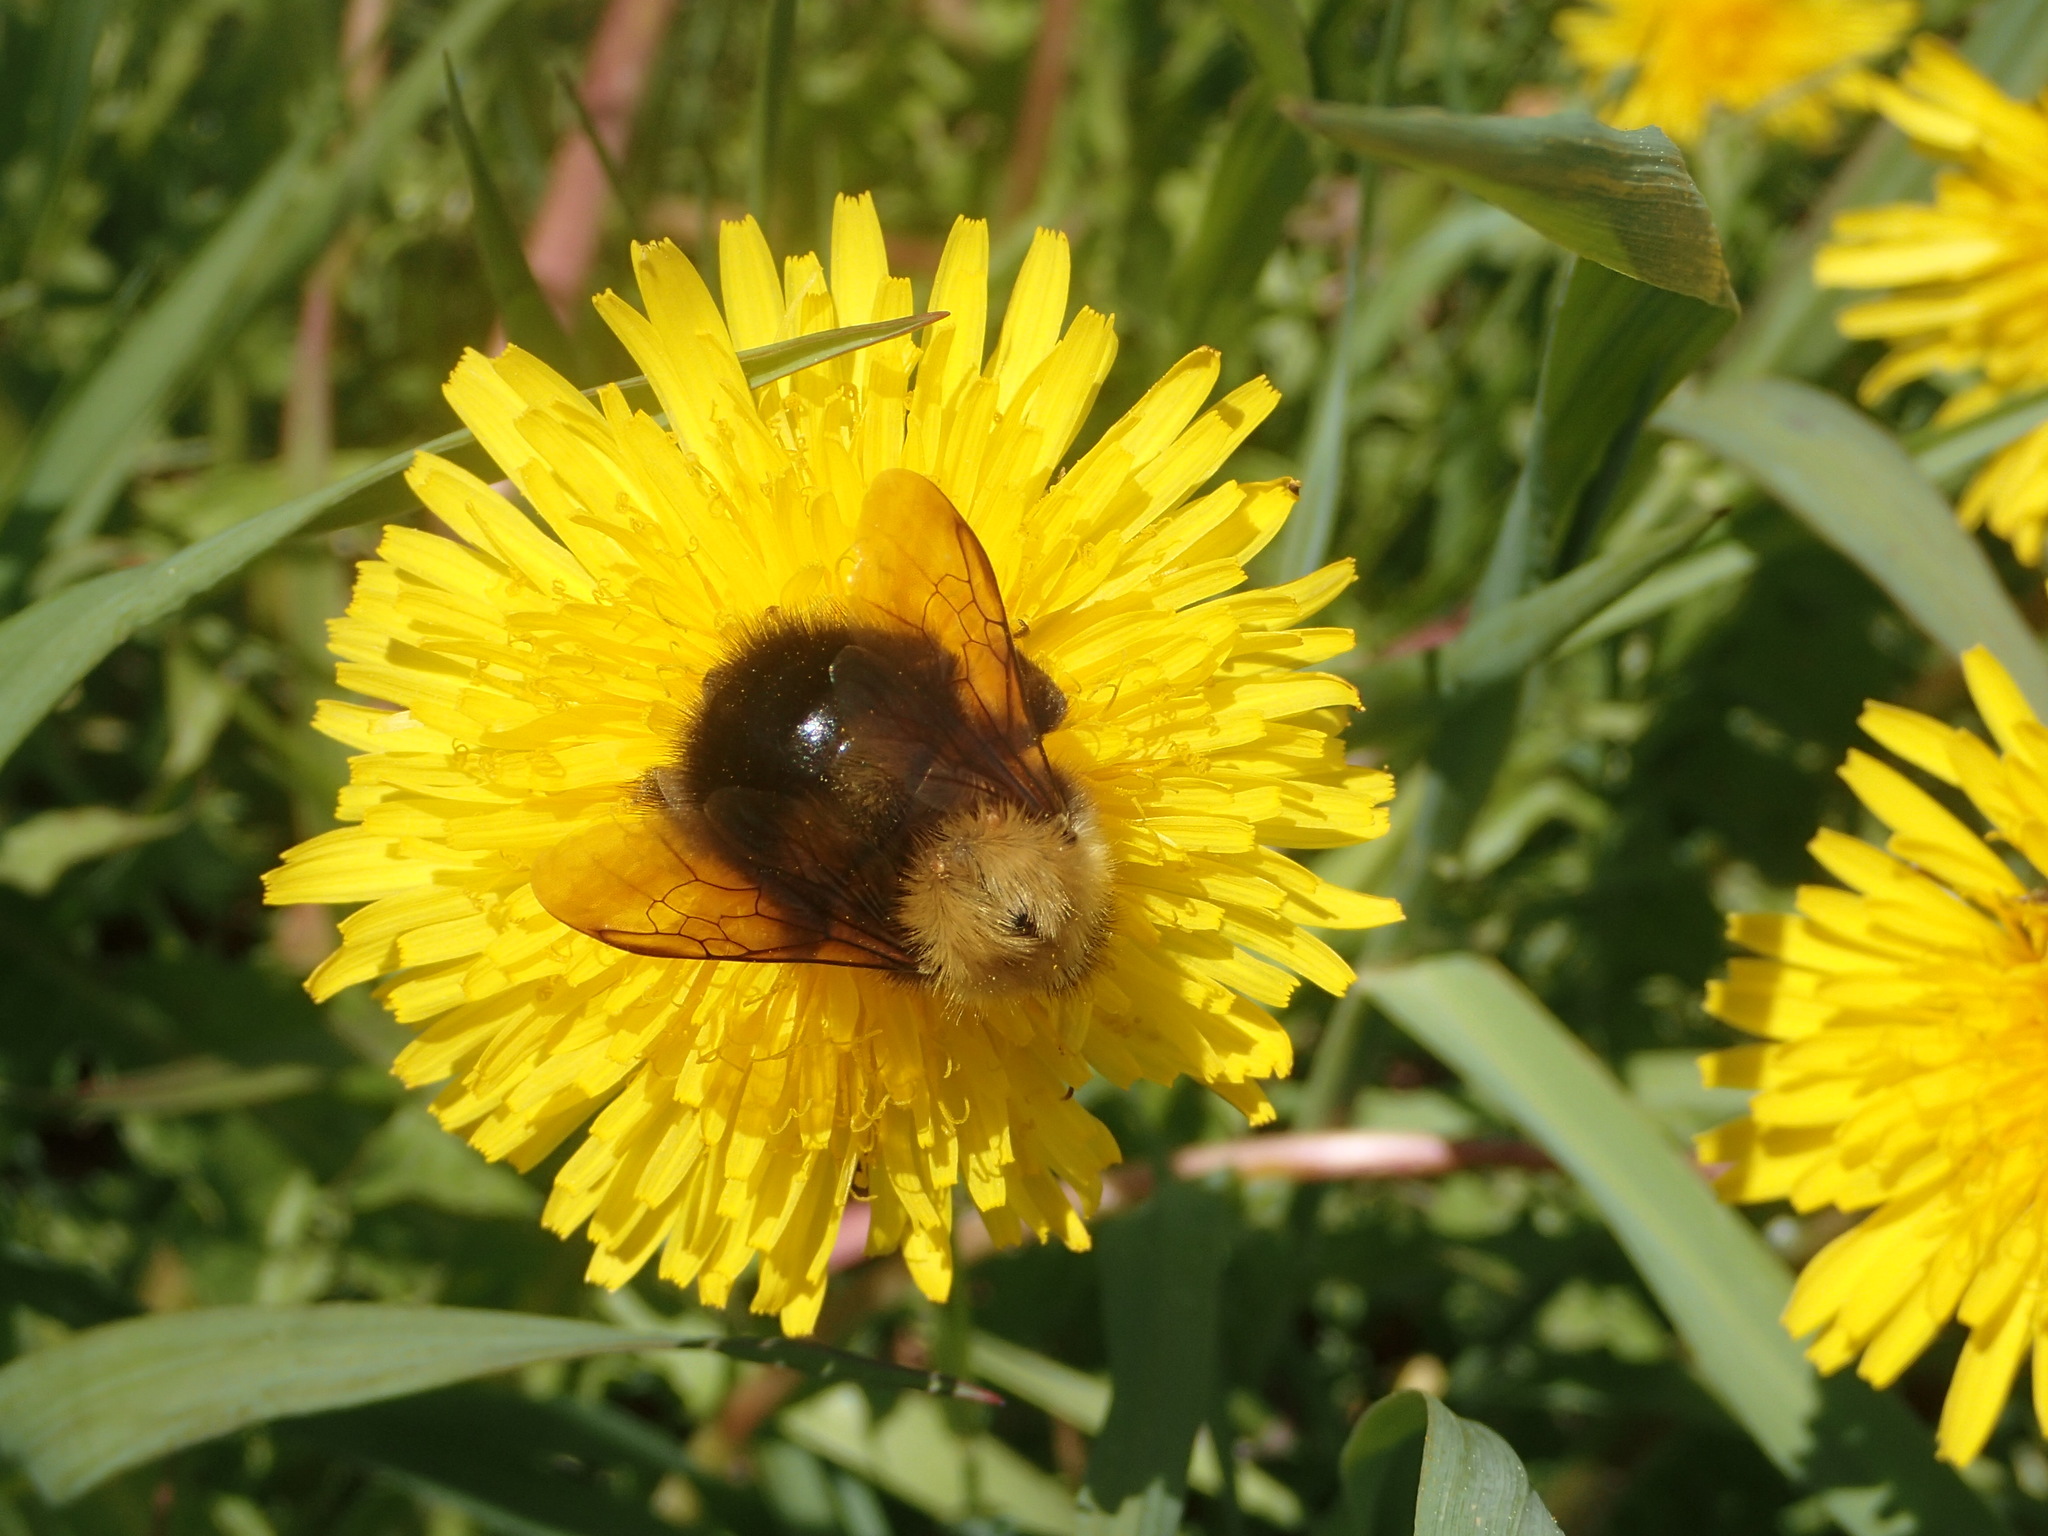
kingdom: Animalia
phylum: Arthropoda
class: Insecta
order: Hymenoptera
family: Apidae
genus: Bombus
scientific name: Bombus perplexus
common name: Confusing bumble bee
